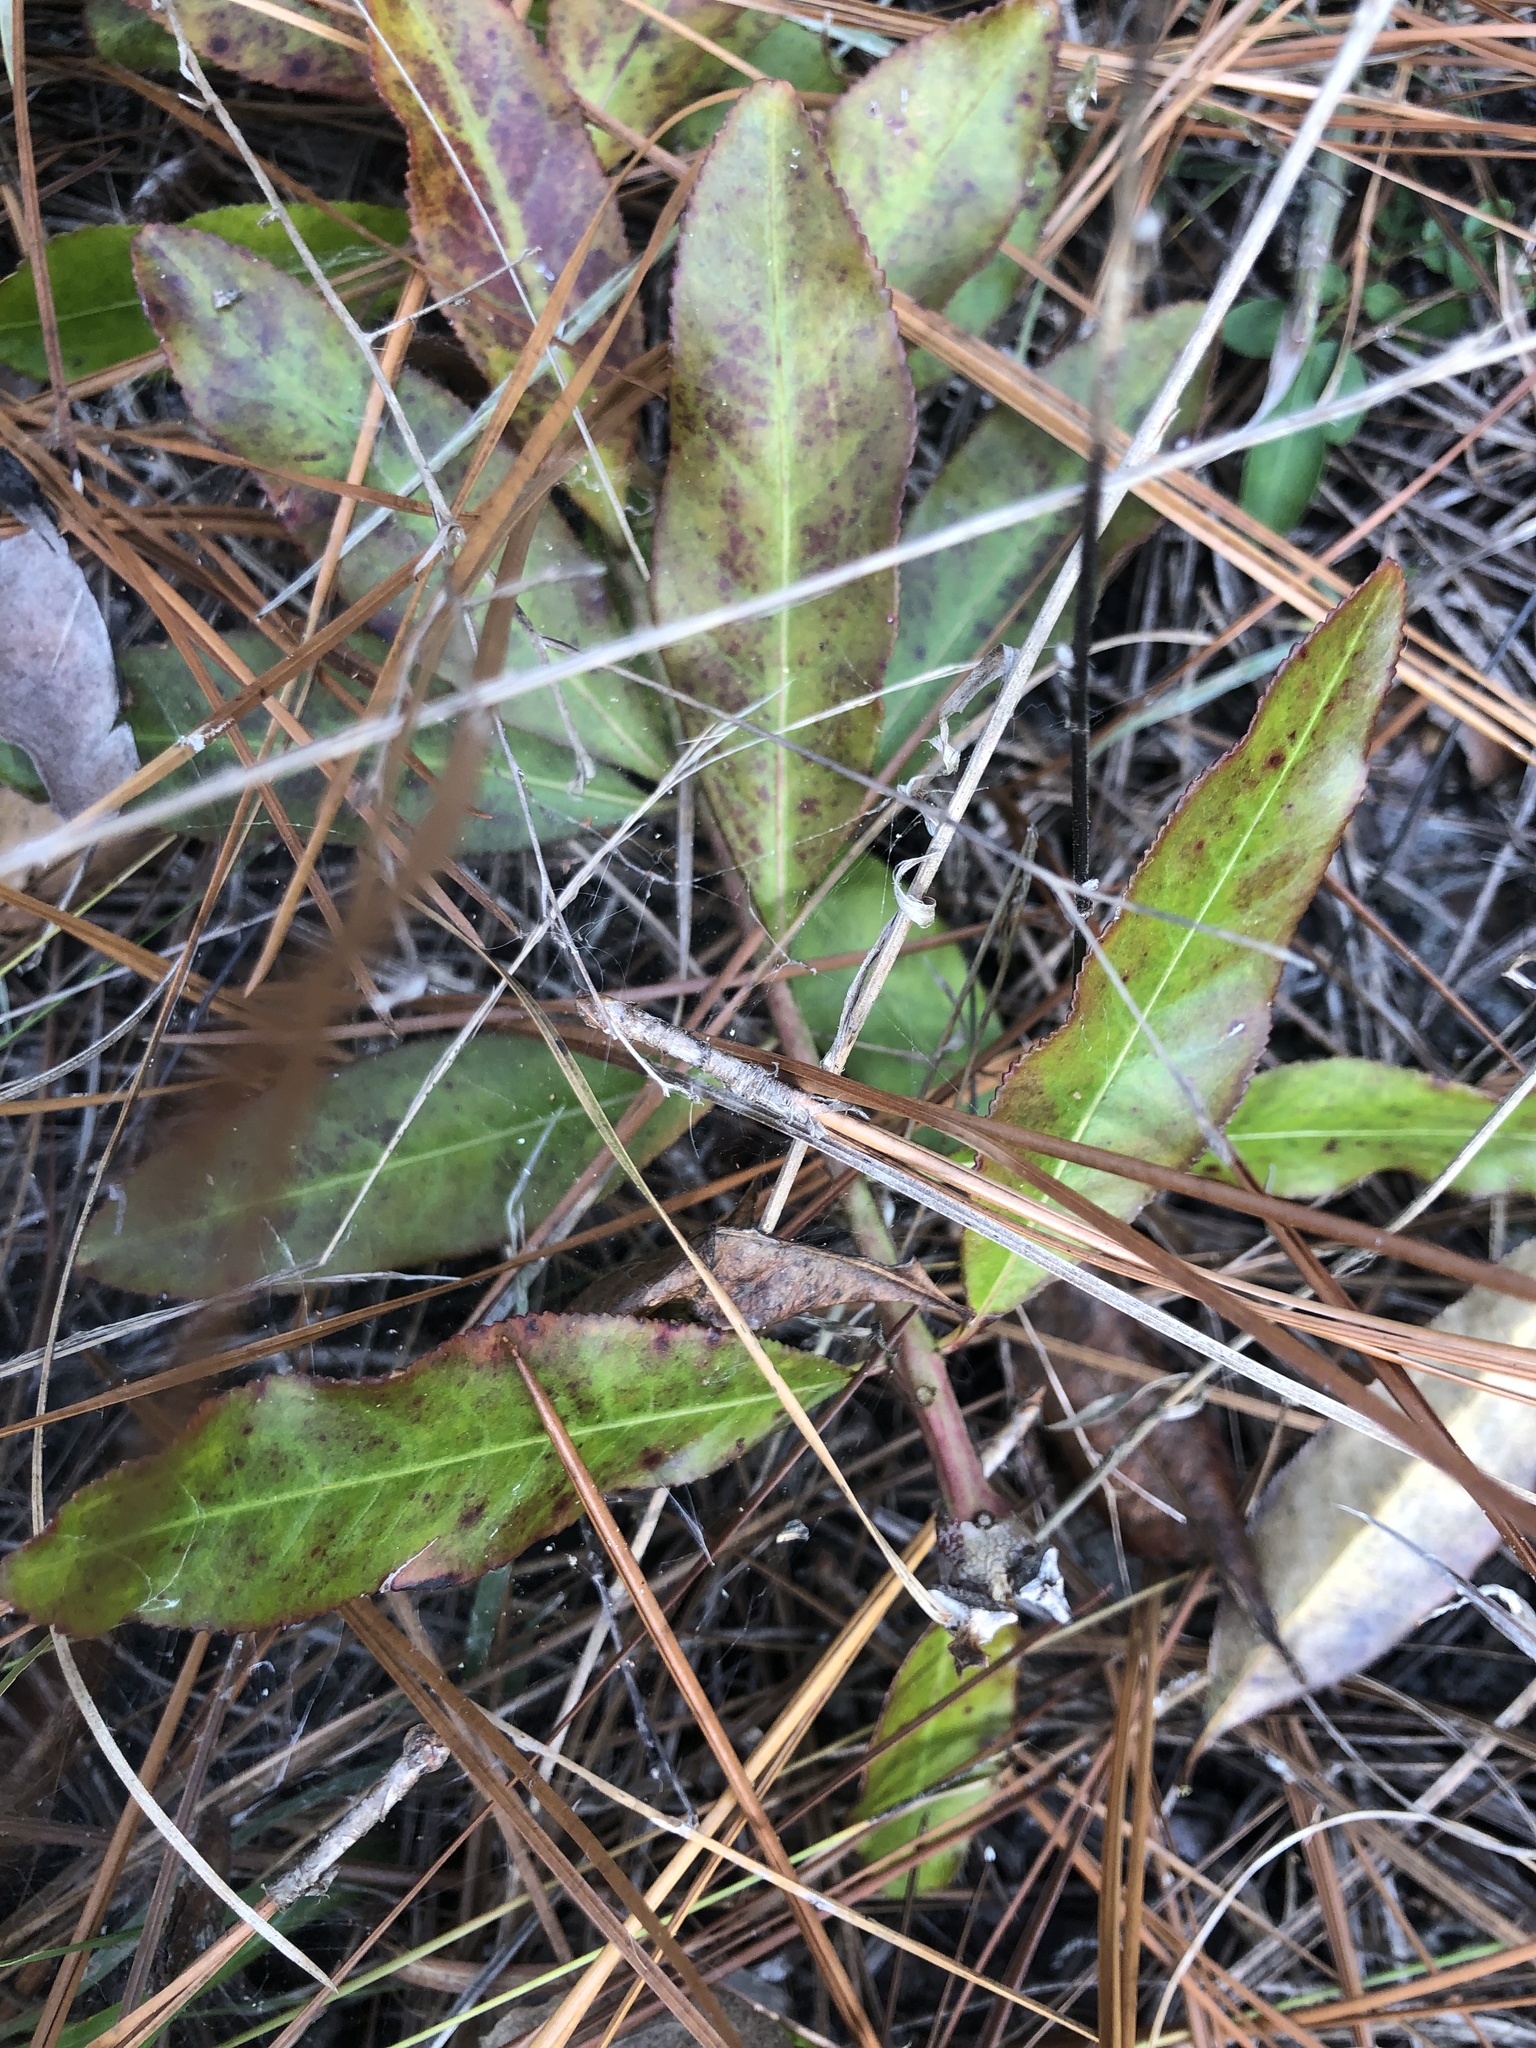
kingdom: Plantae
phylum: Tracheophyta
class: Magnoliopsida
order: Malpighiales
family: Euphorbiaceae
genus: Stillingia
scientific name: Stillingia sylvatica
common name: Queen's-delight
